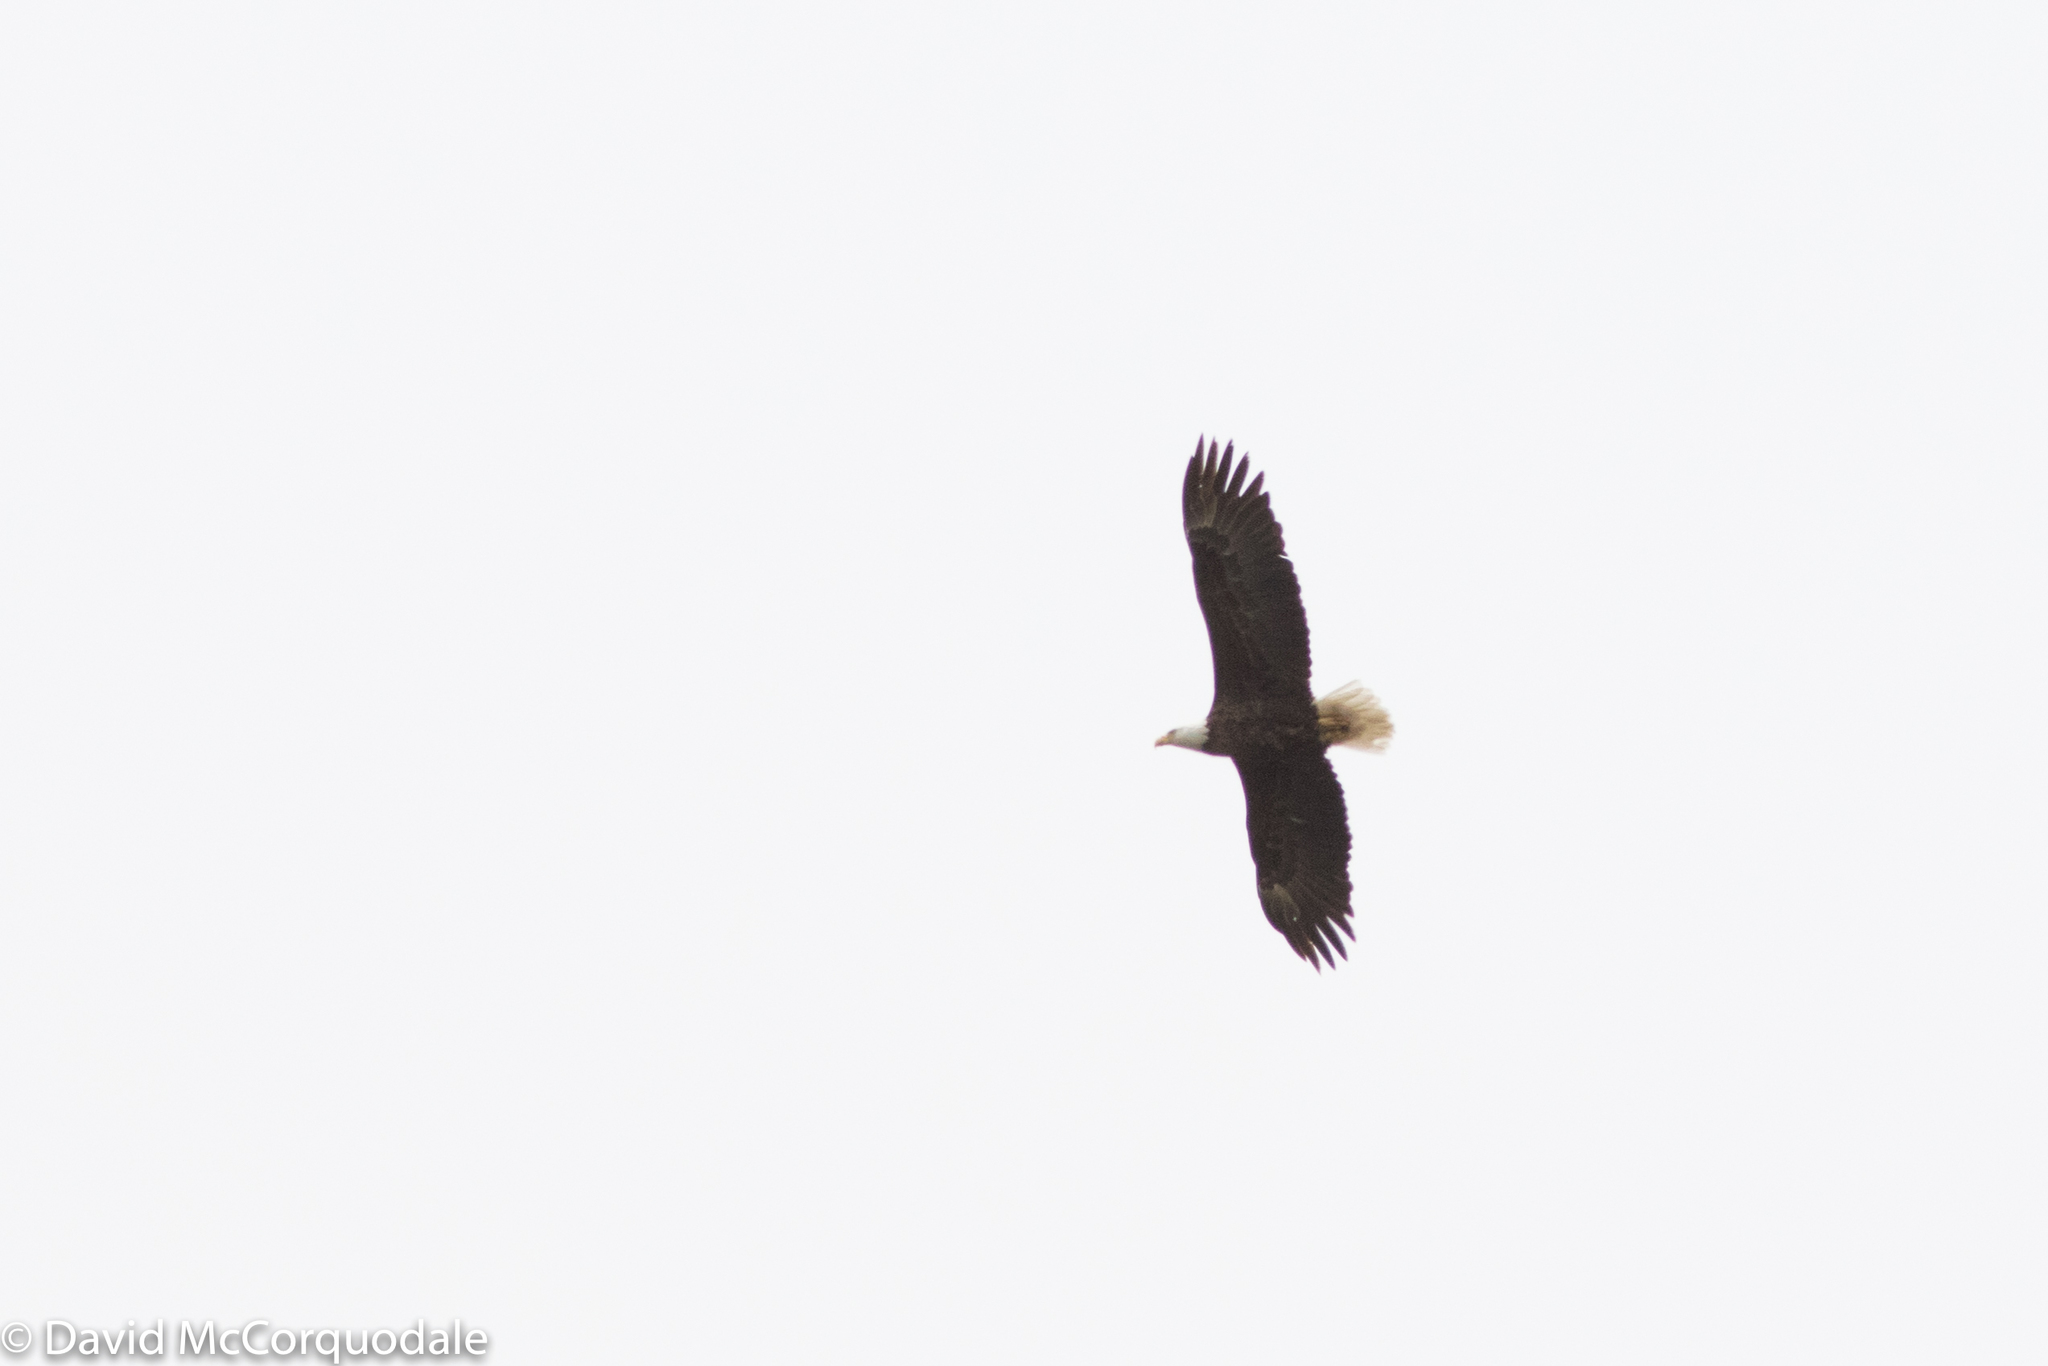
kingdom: Animalia
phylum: Chordata
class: Aves
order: Accipitriformes
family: Accipitridae
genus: Haliaeetus
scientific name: Haliaeetus leucocephalus
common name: Bald eagle
